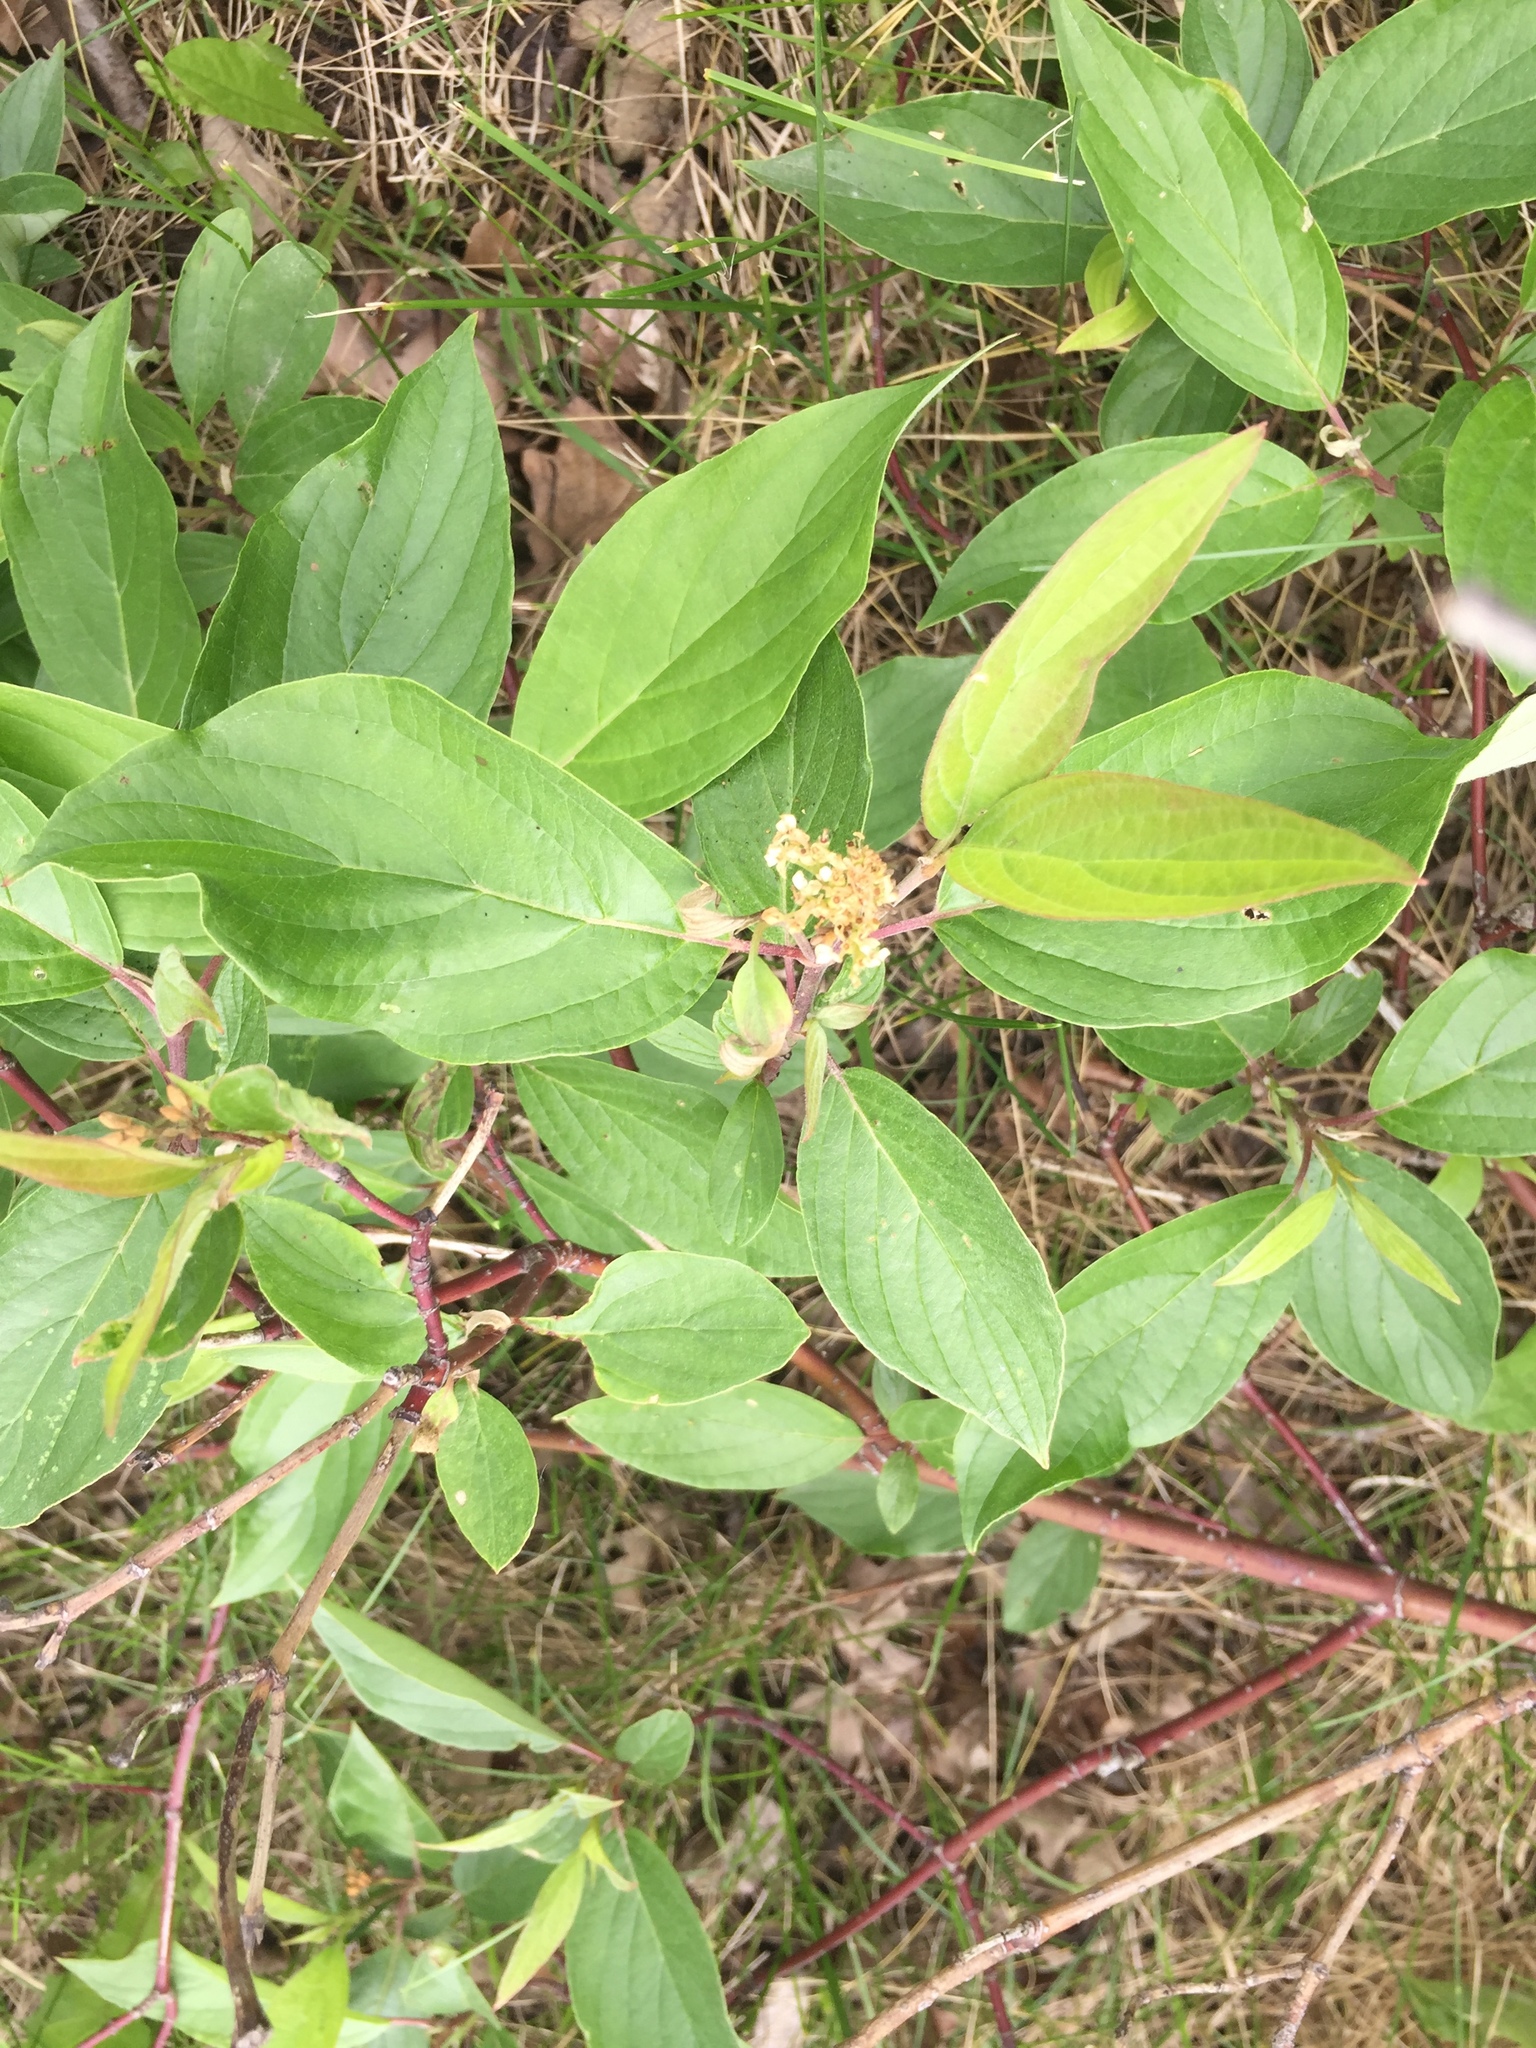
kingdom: Plantae
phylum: Tracheophyta
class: Magnoliopsida
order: Cornales
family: Cornaceae
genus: Cornus
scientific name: Cornus sericea
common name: Red-osier dogwood
